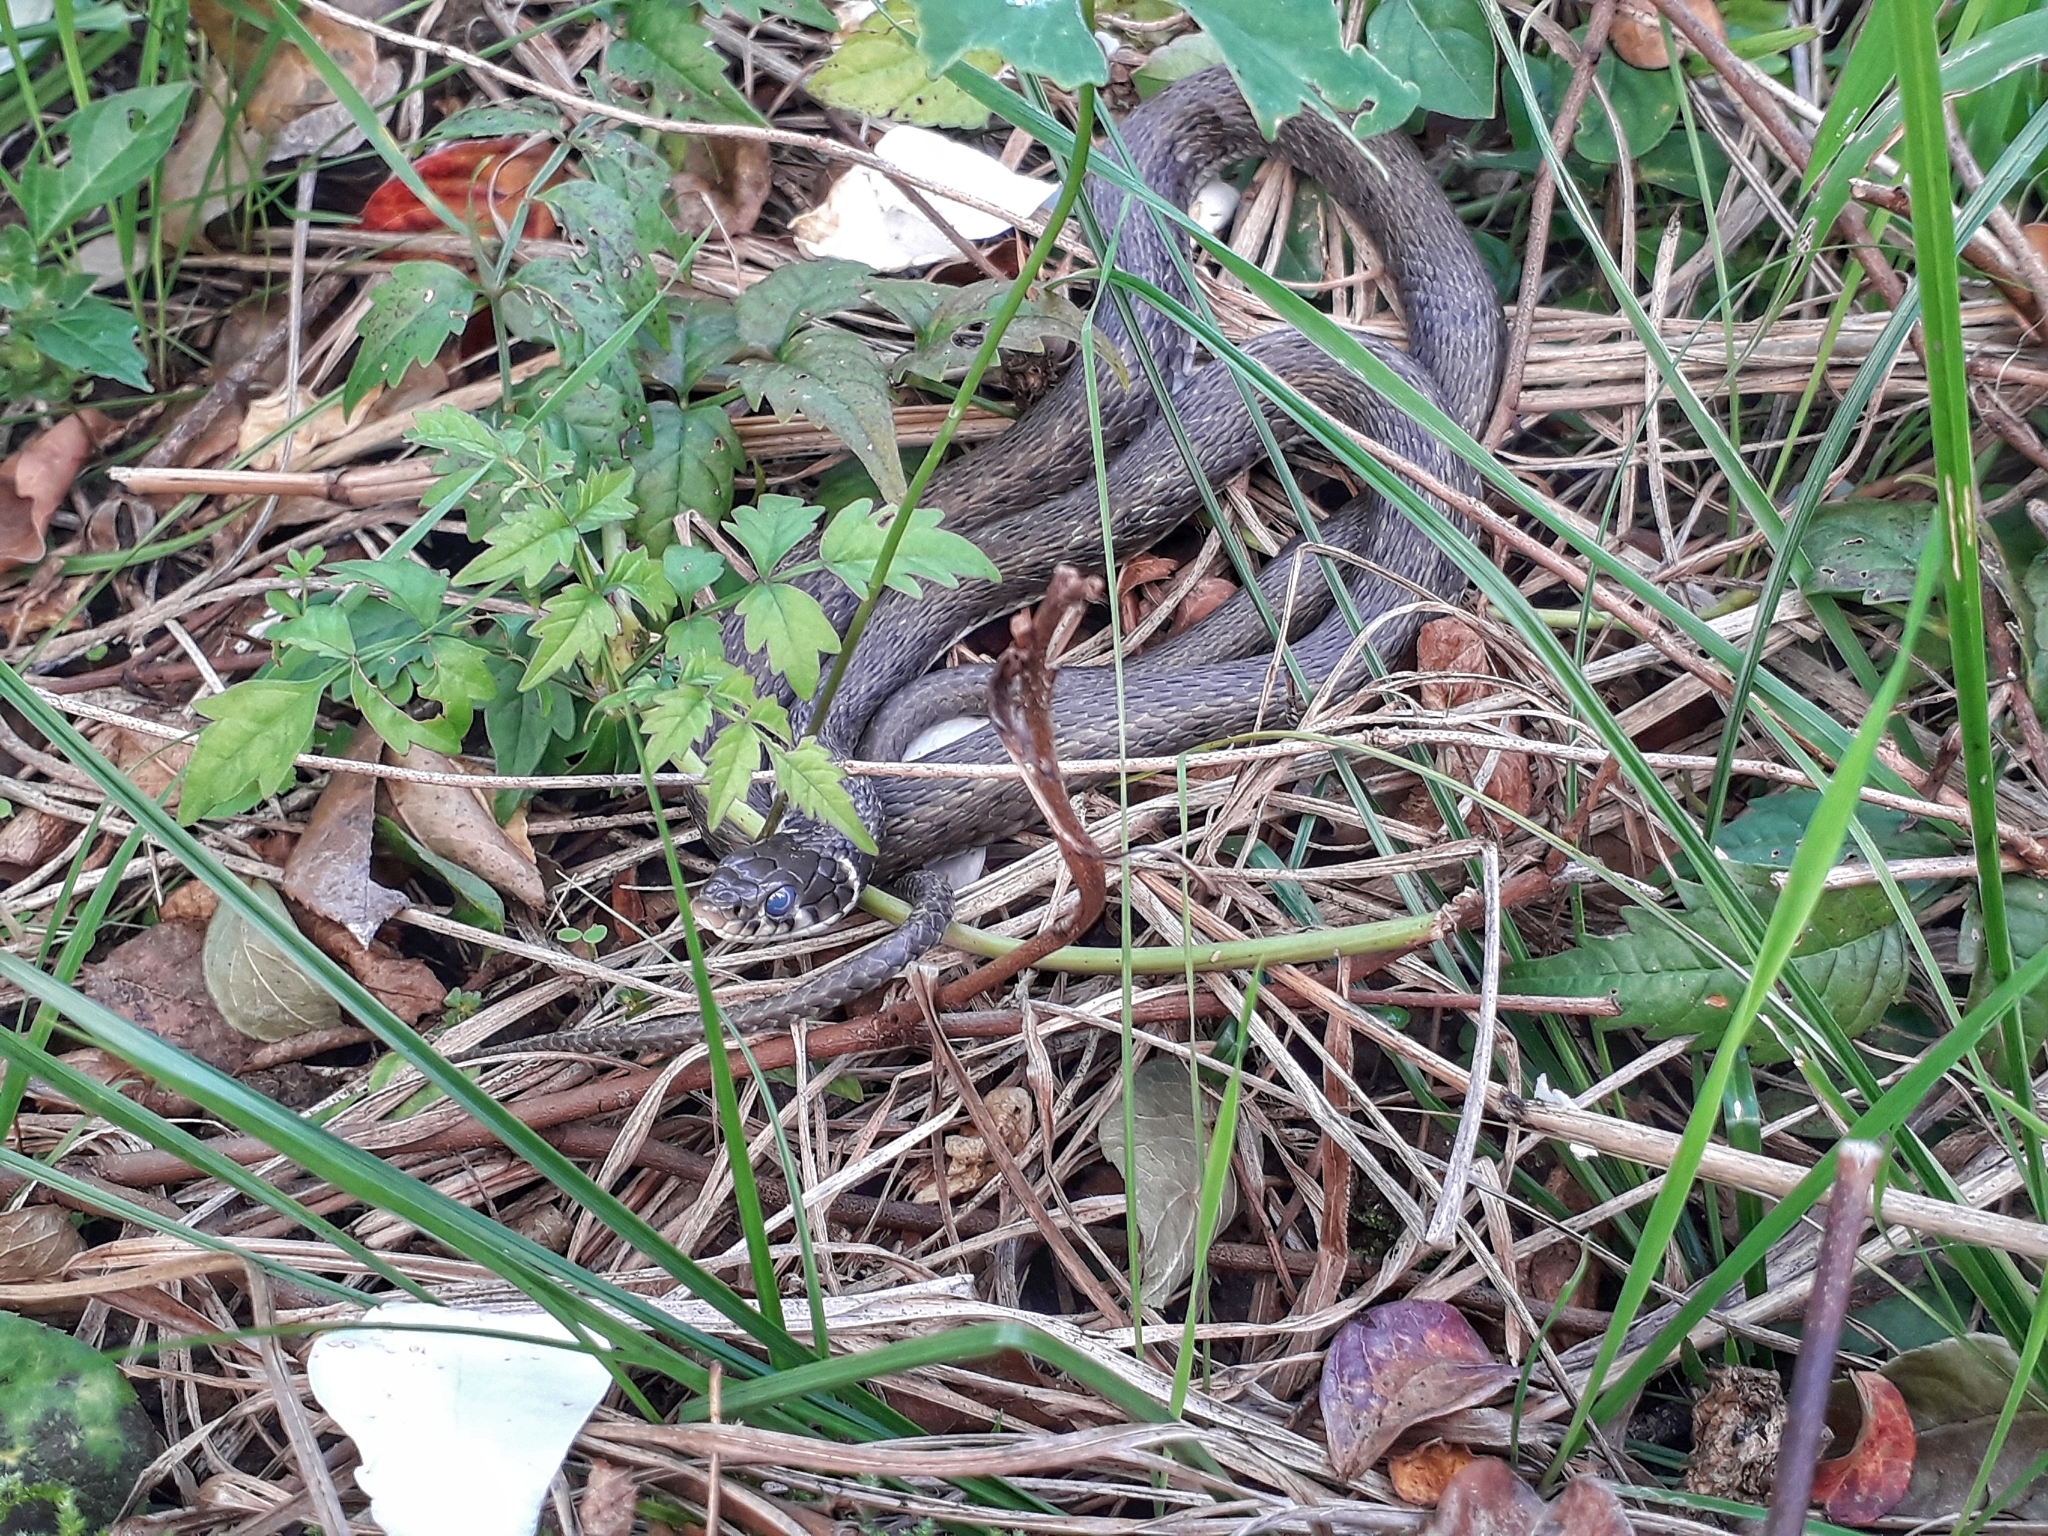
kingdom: Animalia
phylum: Chordata
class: Squamata
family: Colubridae
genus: Natrix
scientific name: Natrix natrix
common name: Grass snake
